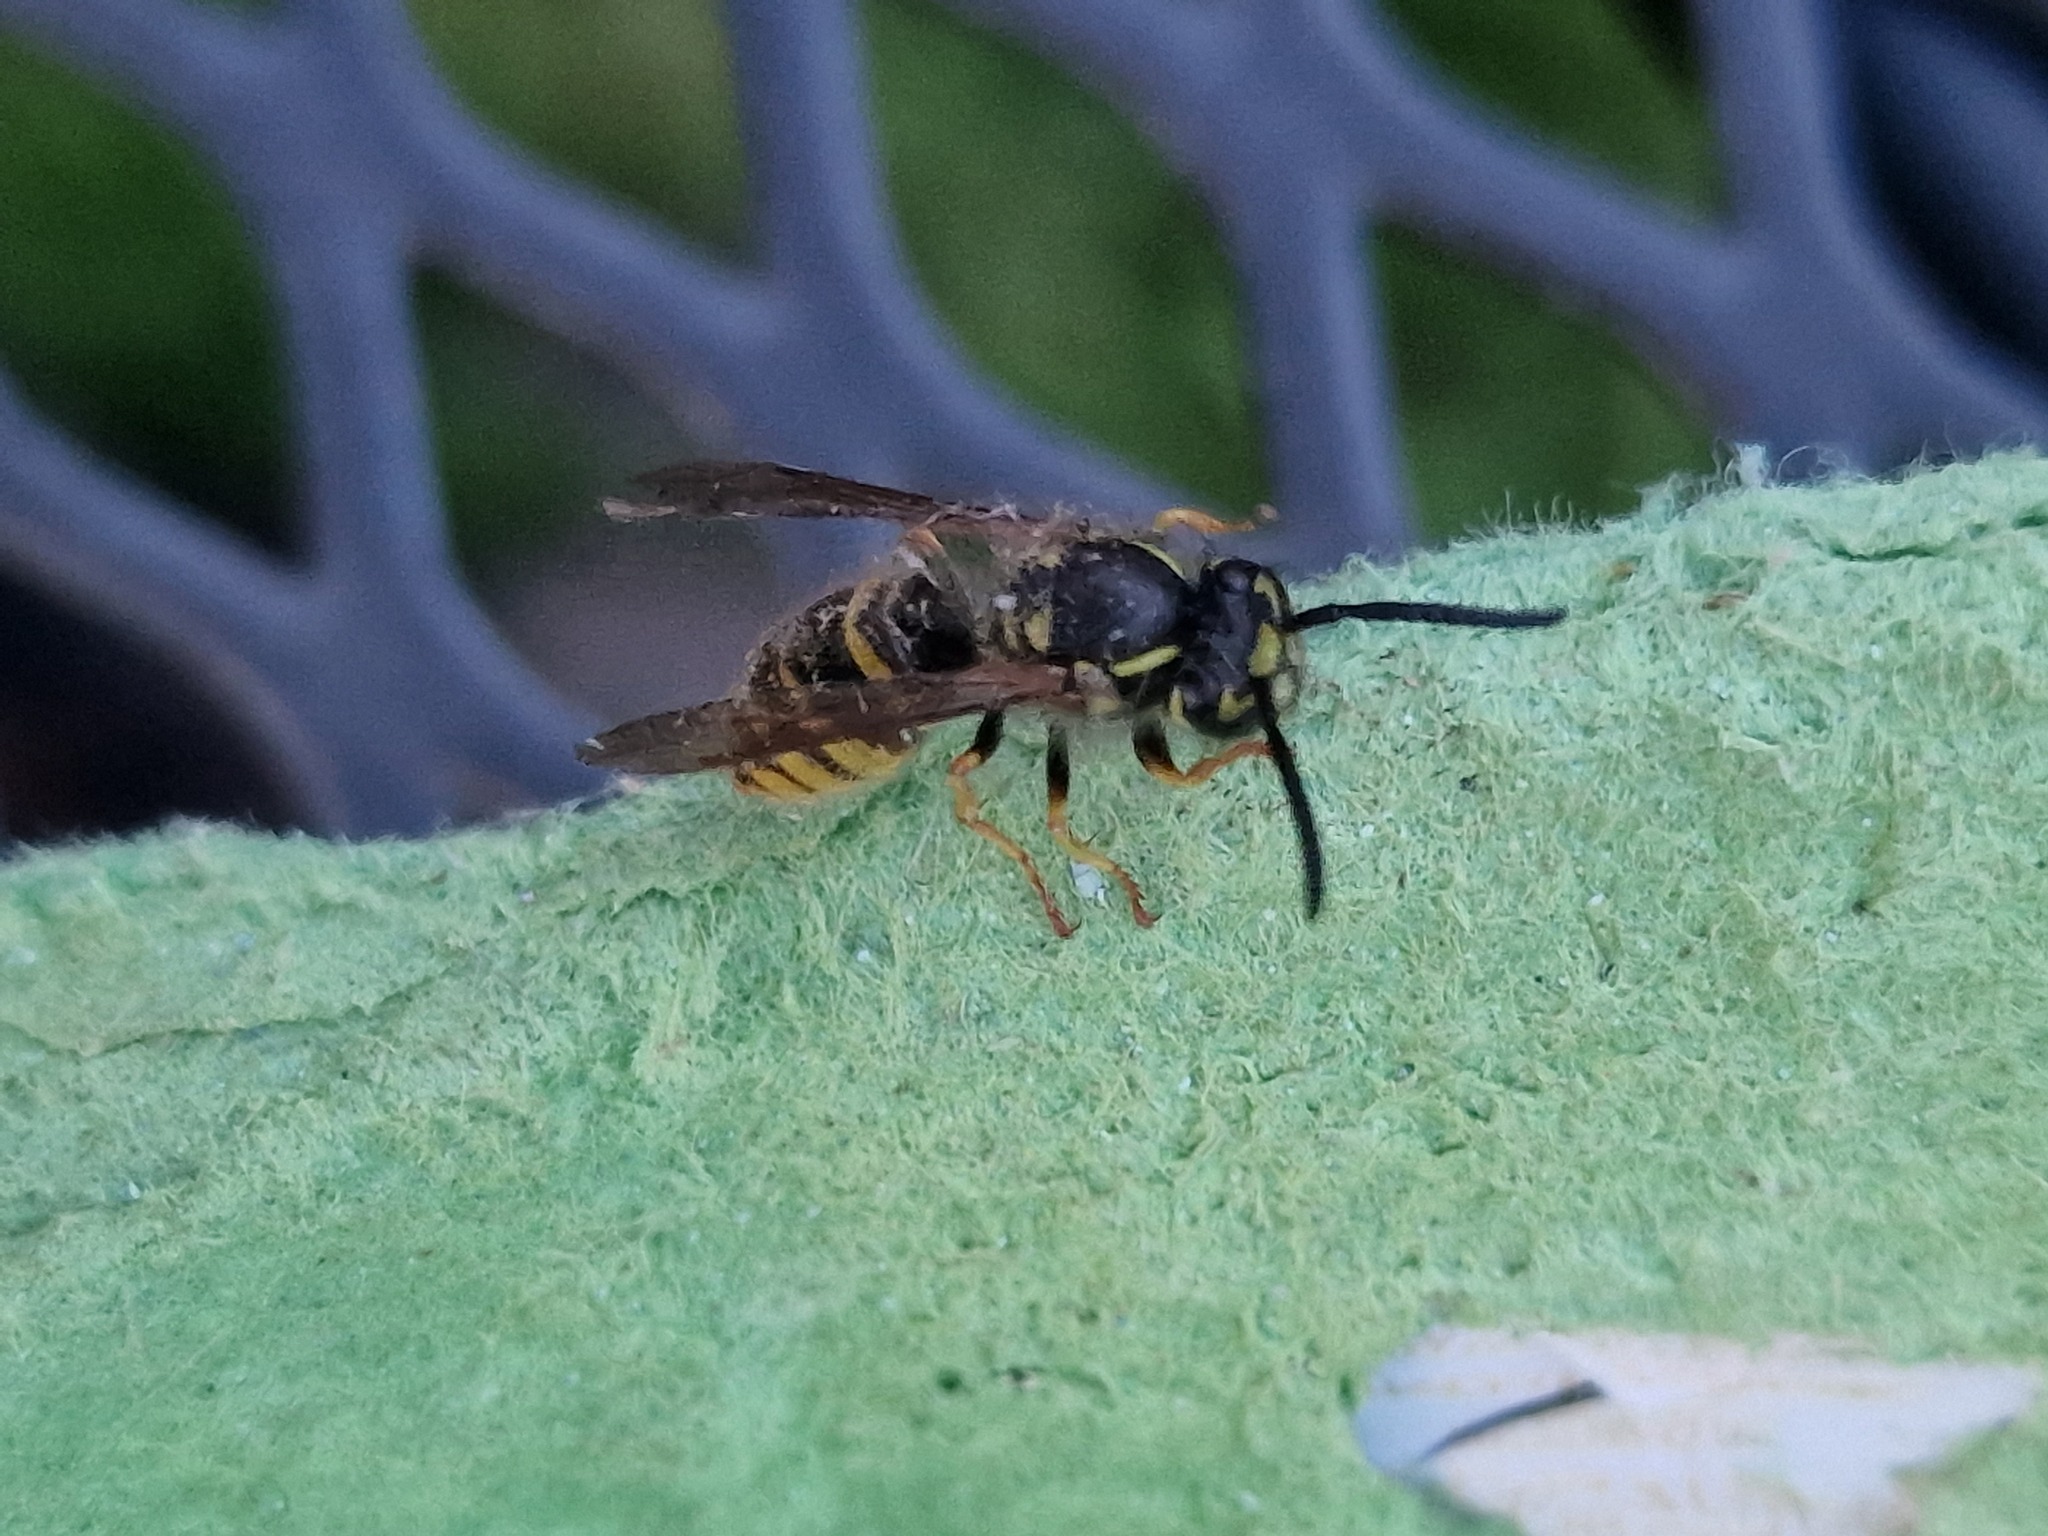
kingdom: Animalia
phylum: Arthropoda
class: Insecta
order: Hymenoptera
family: Vespidae
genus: Vespula
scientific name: Vespula vulgaris
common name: Common wasp
